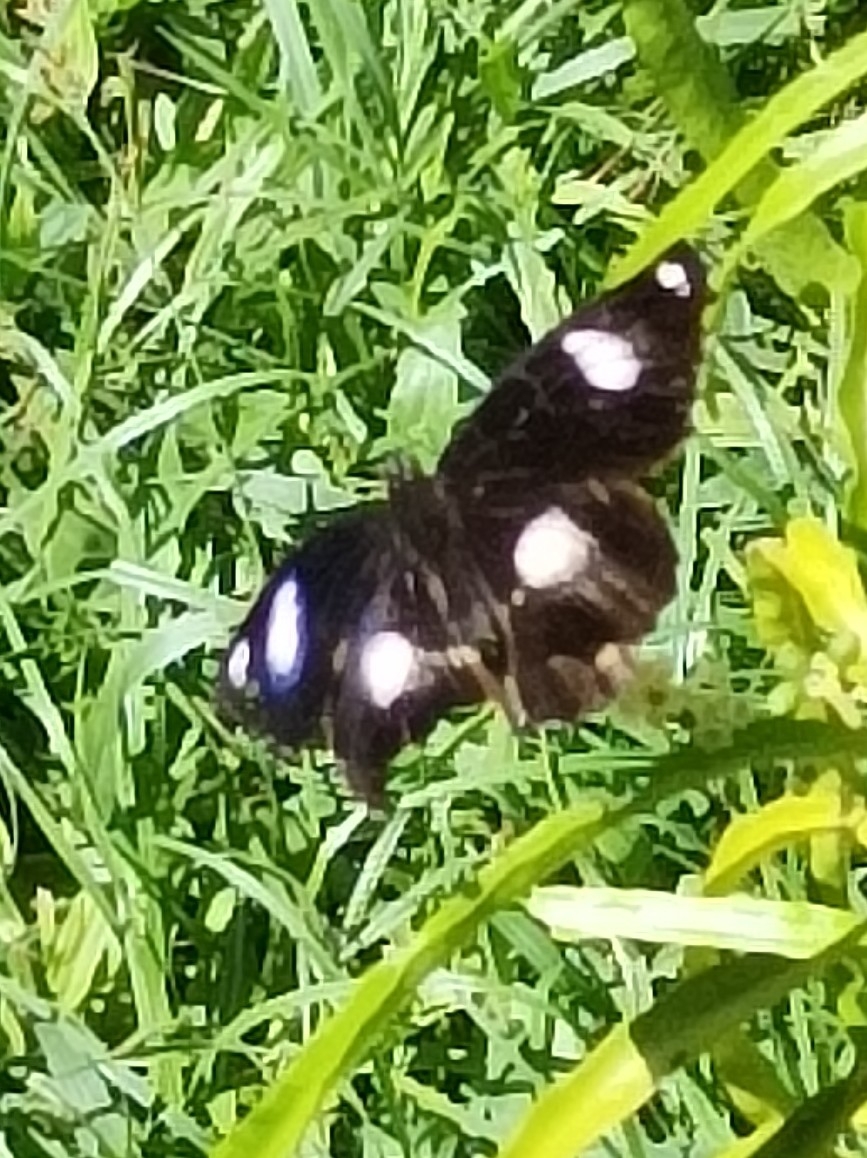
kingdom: Animalia
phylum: Arthropoda
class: Insecta
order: Lepidoptera
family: Nymphalidae
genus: Hypolimnas
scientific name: Hypolimnas bolina
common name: Great eggfly
